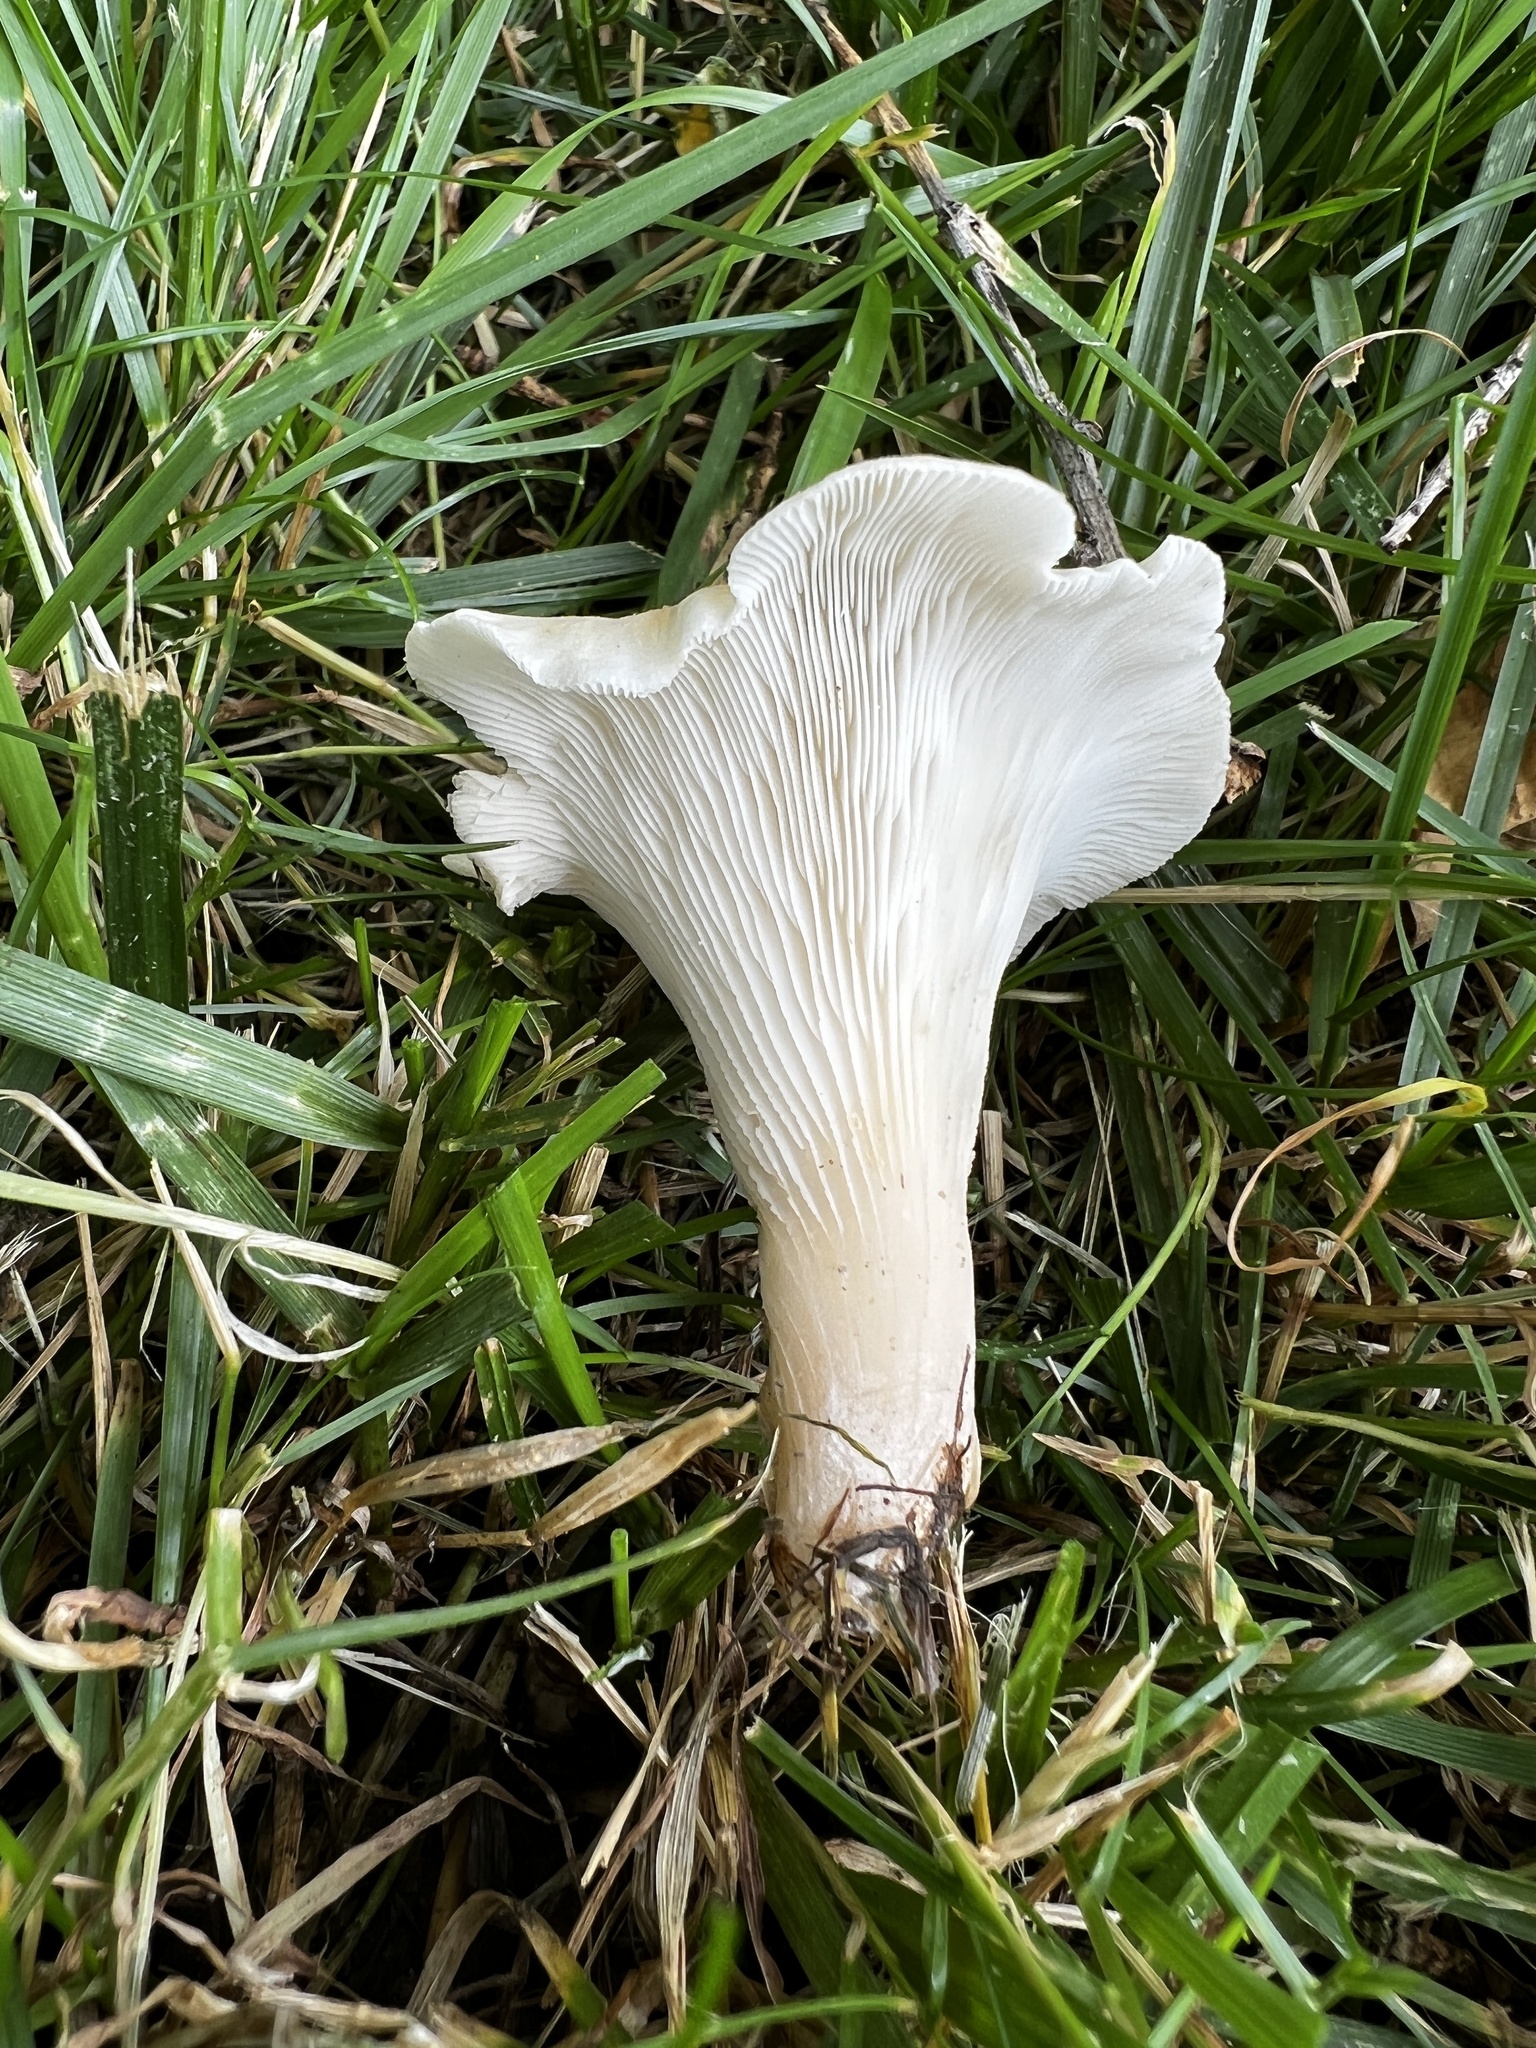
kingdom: Fungi
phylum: Basidiomycota
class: Agaricomycetes
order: Agaricales
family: Pleurotaceae
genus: Hohenbuehelia
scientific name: Hohenbuehelia petaloides
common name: Shoehorn oyster
